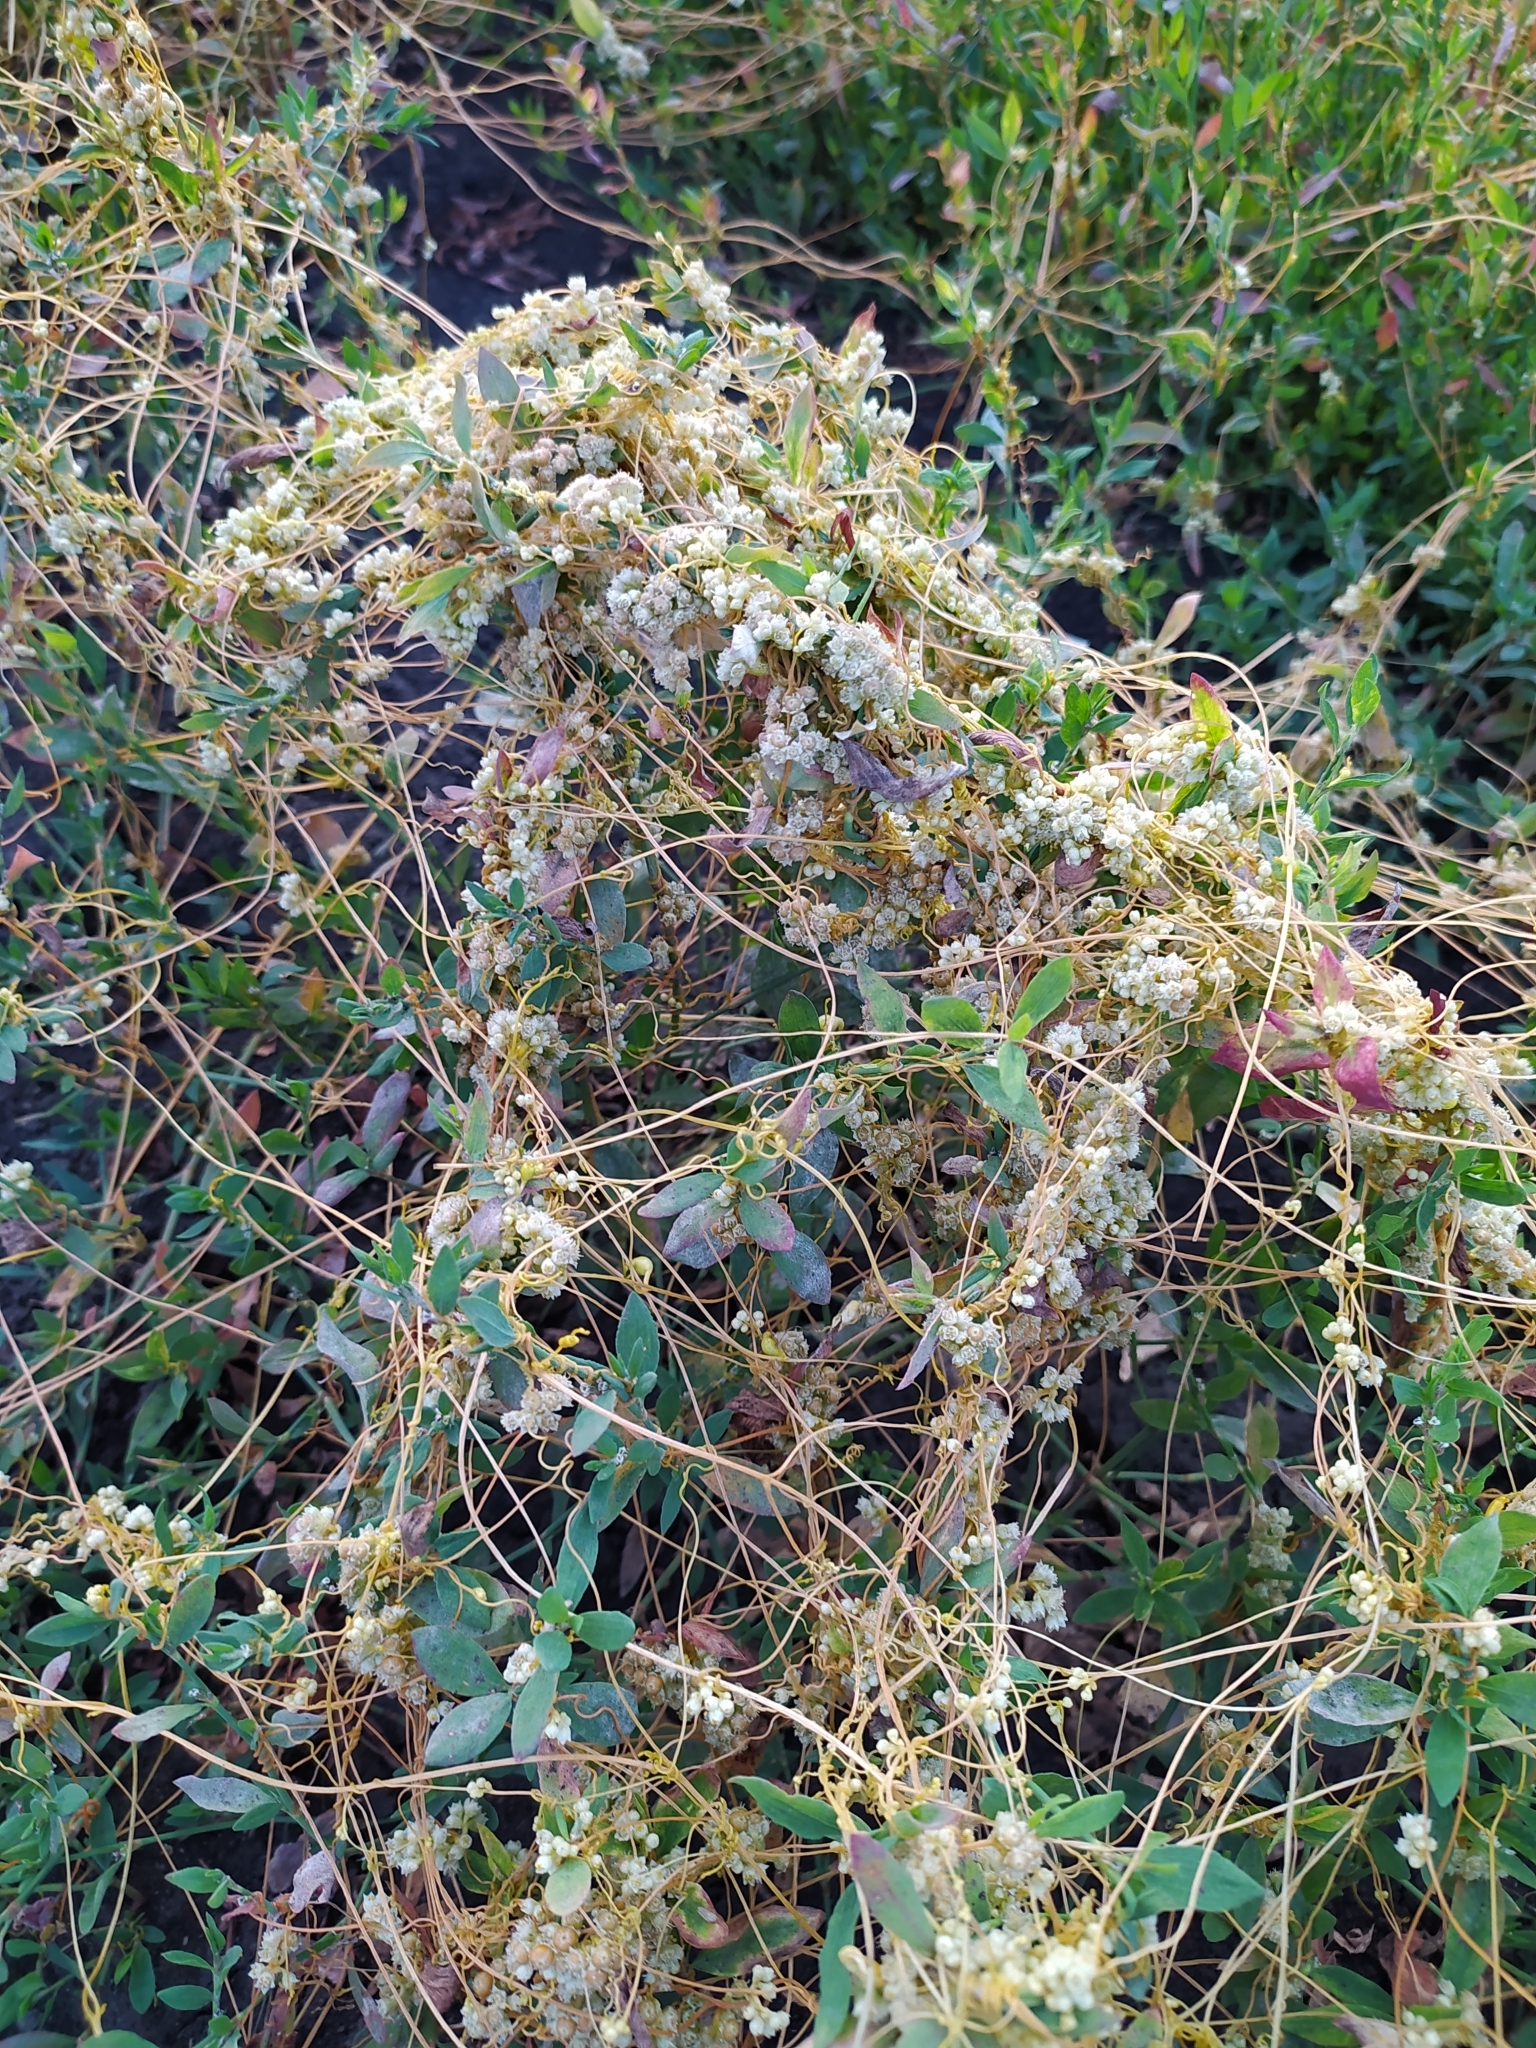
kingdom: Plantae
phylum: Tracheophyta
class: Magnoliopsida
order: Solanales
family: Convolvulaceae
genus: Cuscuta
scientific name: Cuscuta campestris
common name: Yellow dodder
